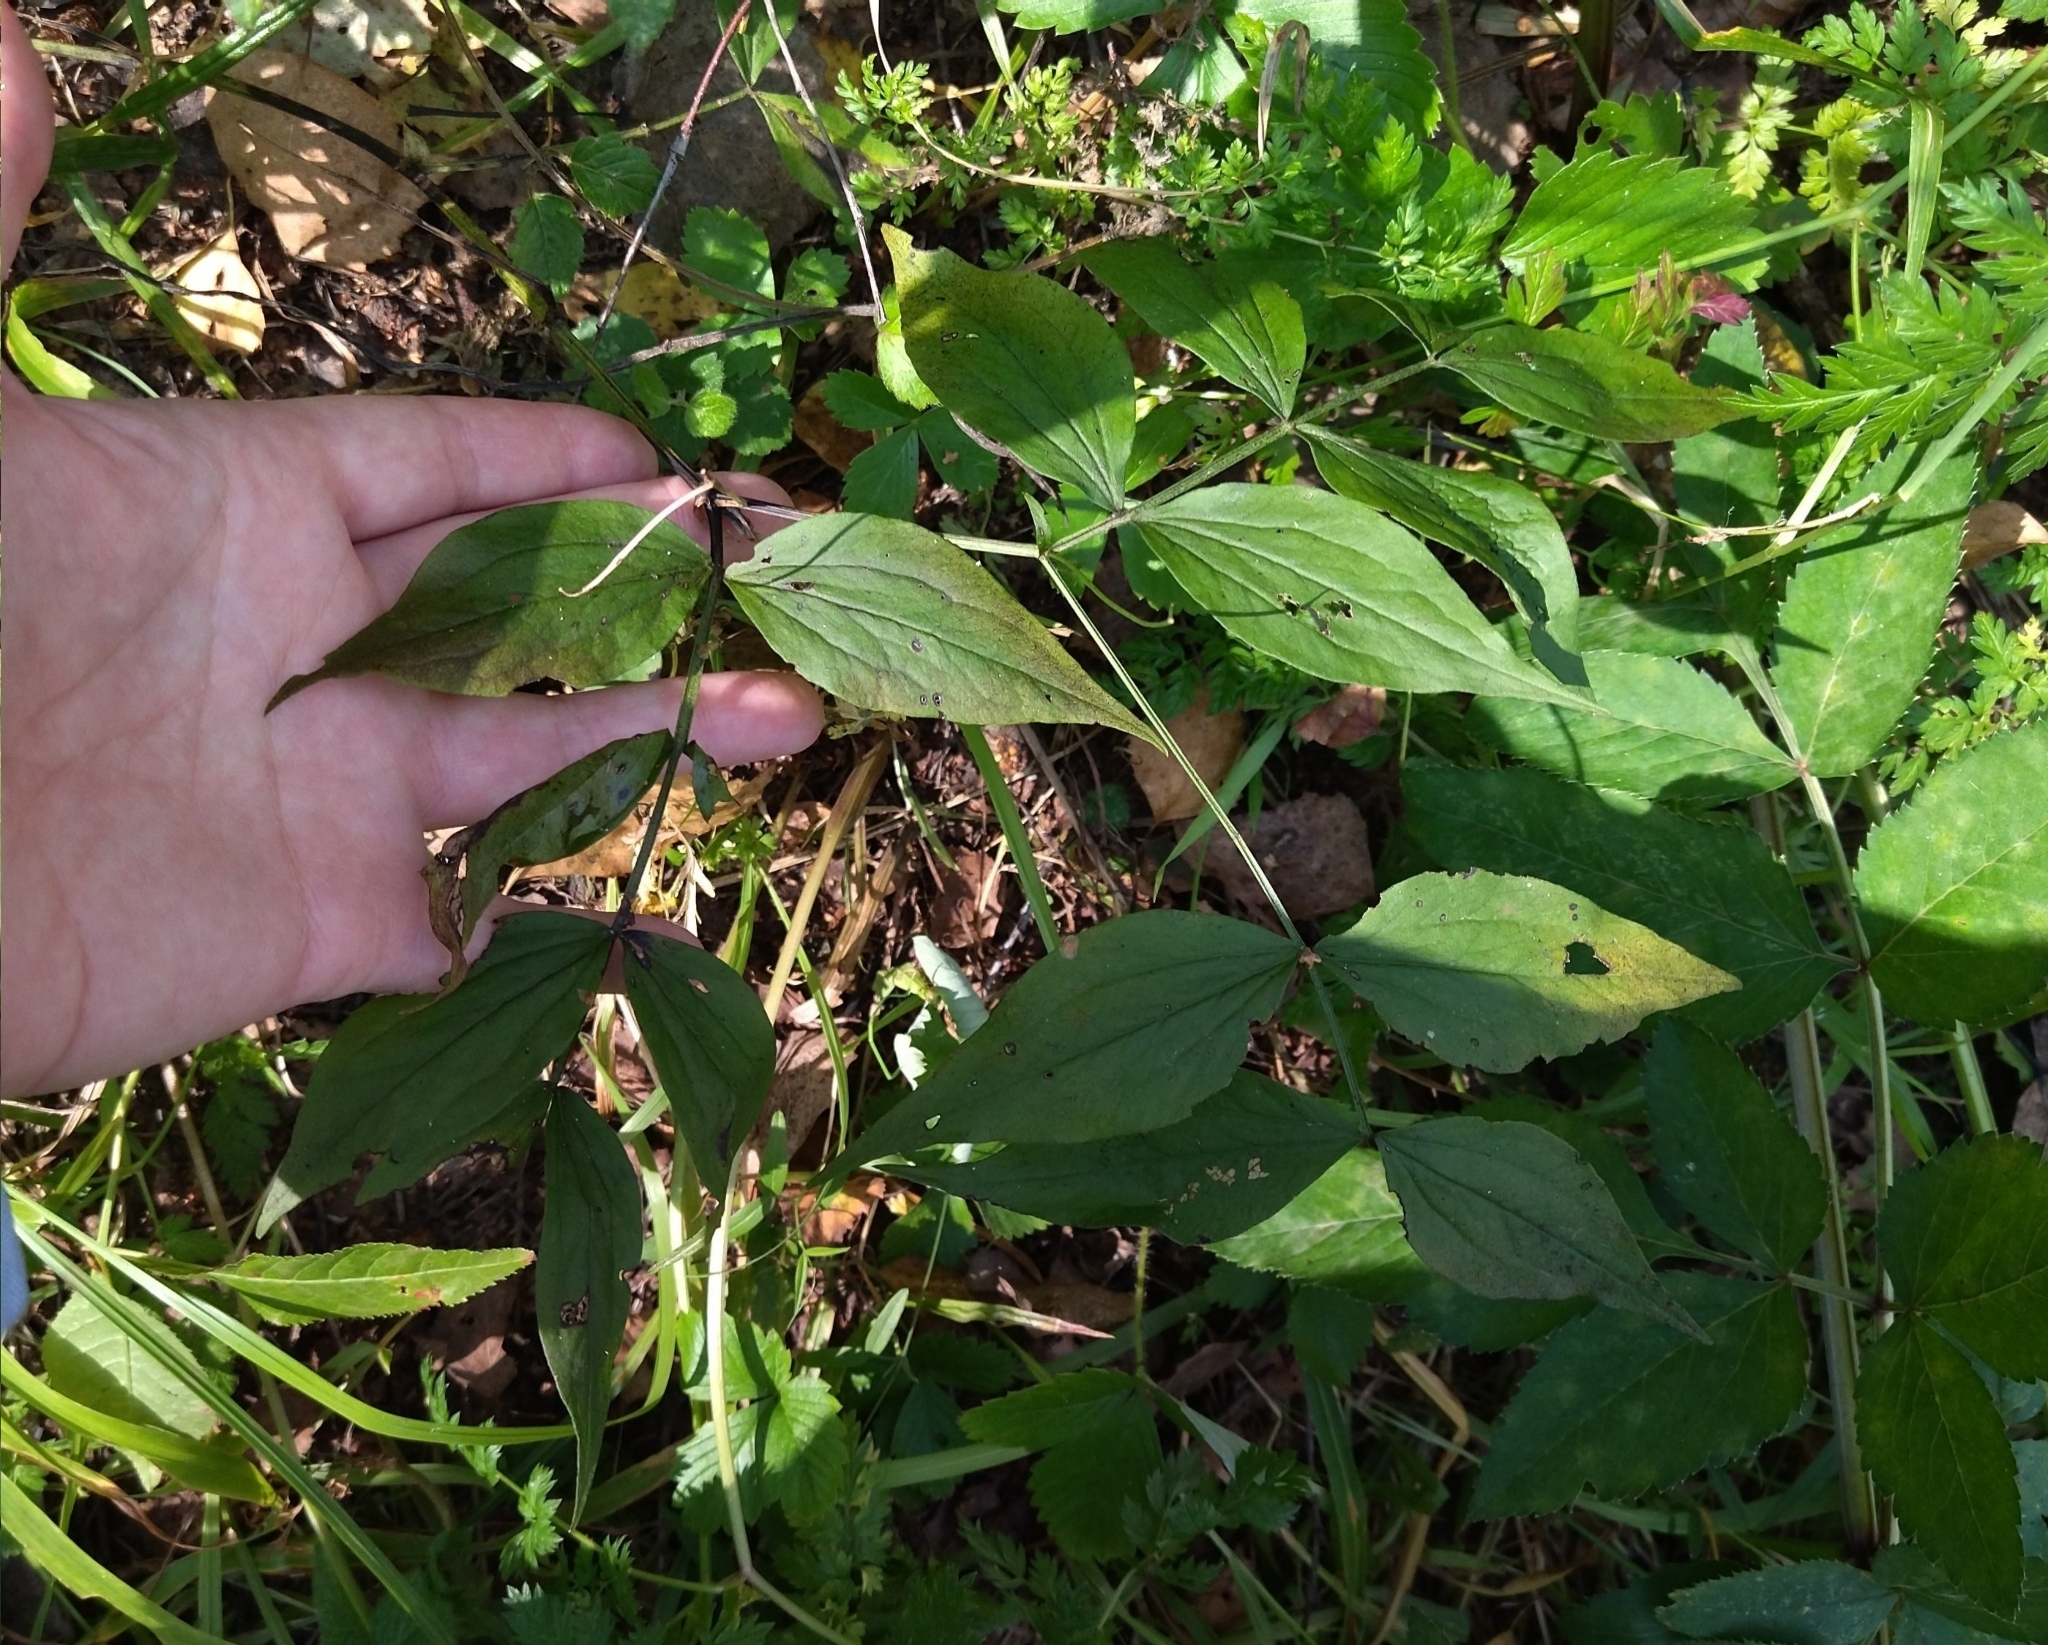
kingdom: Plantae
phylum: Tracheophyta
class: Magnoliopsida
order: Fabales
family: Fabaceae
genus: Lathyrus
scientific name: Lathyrus vernus
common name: Spring pea
